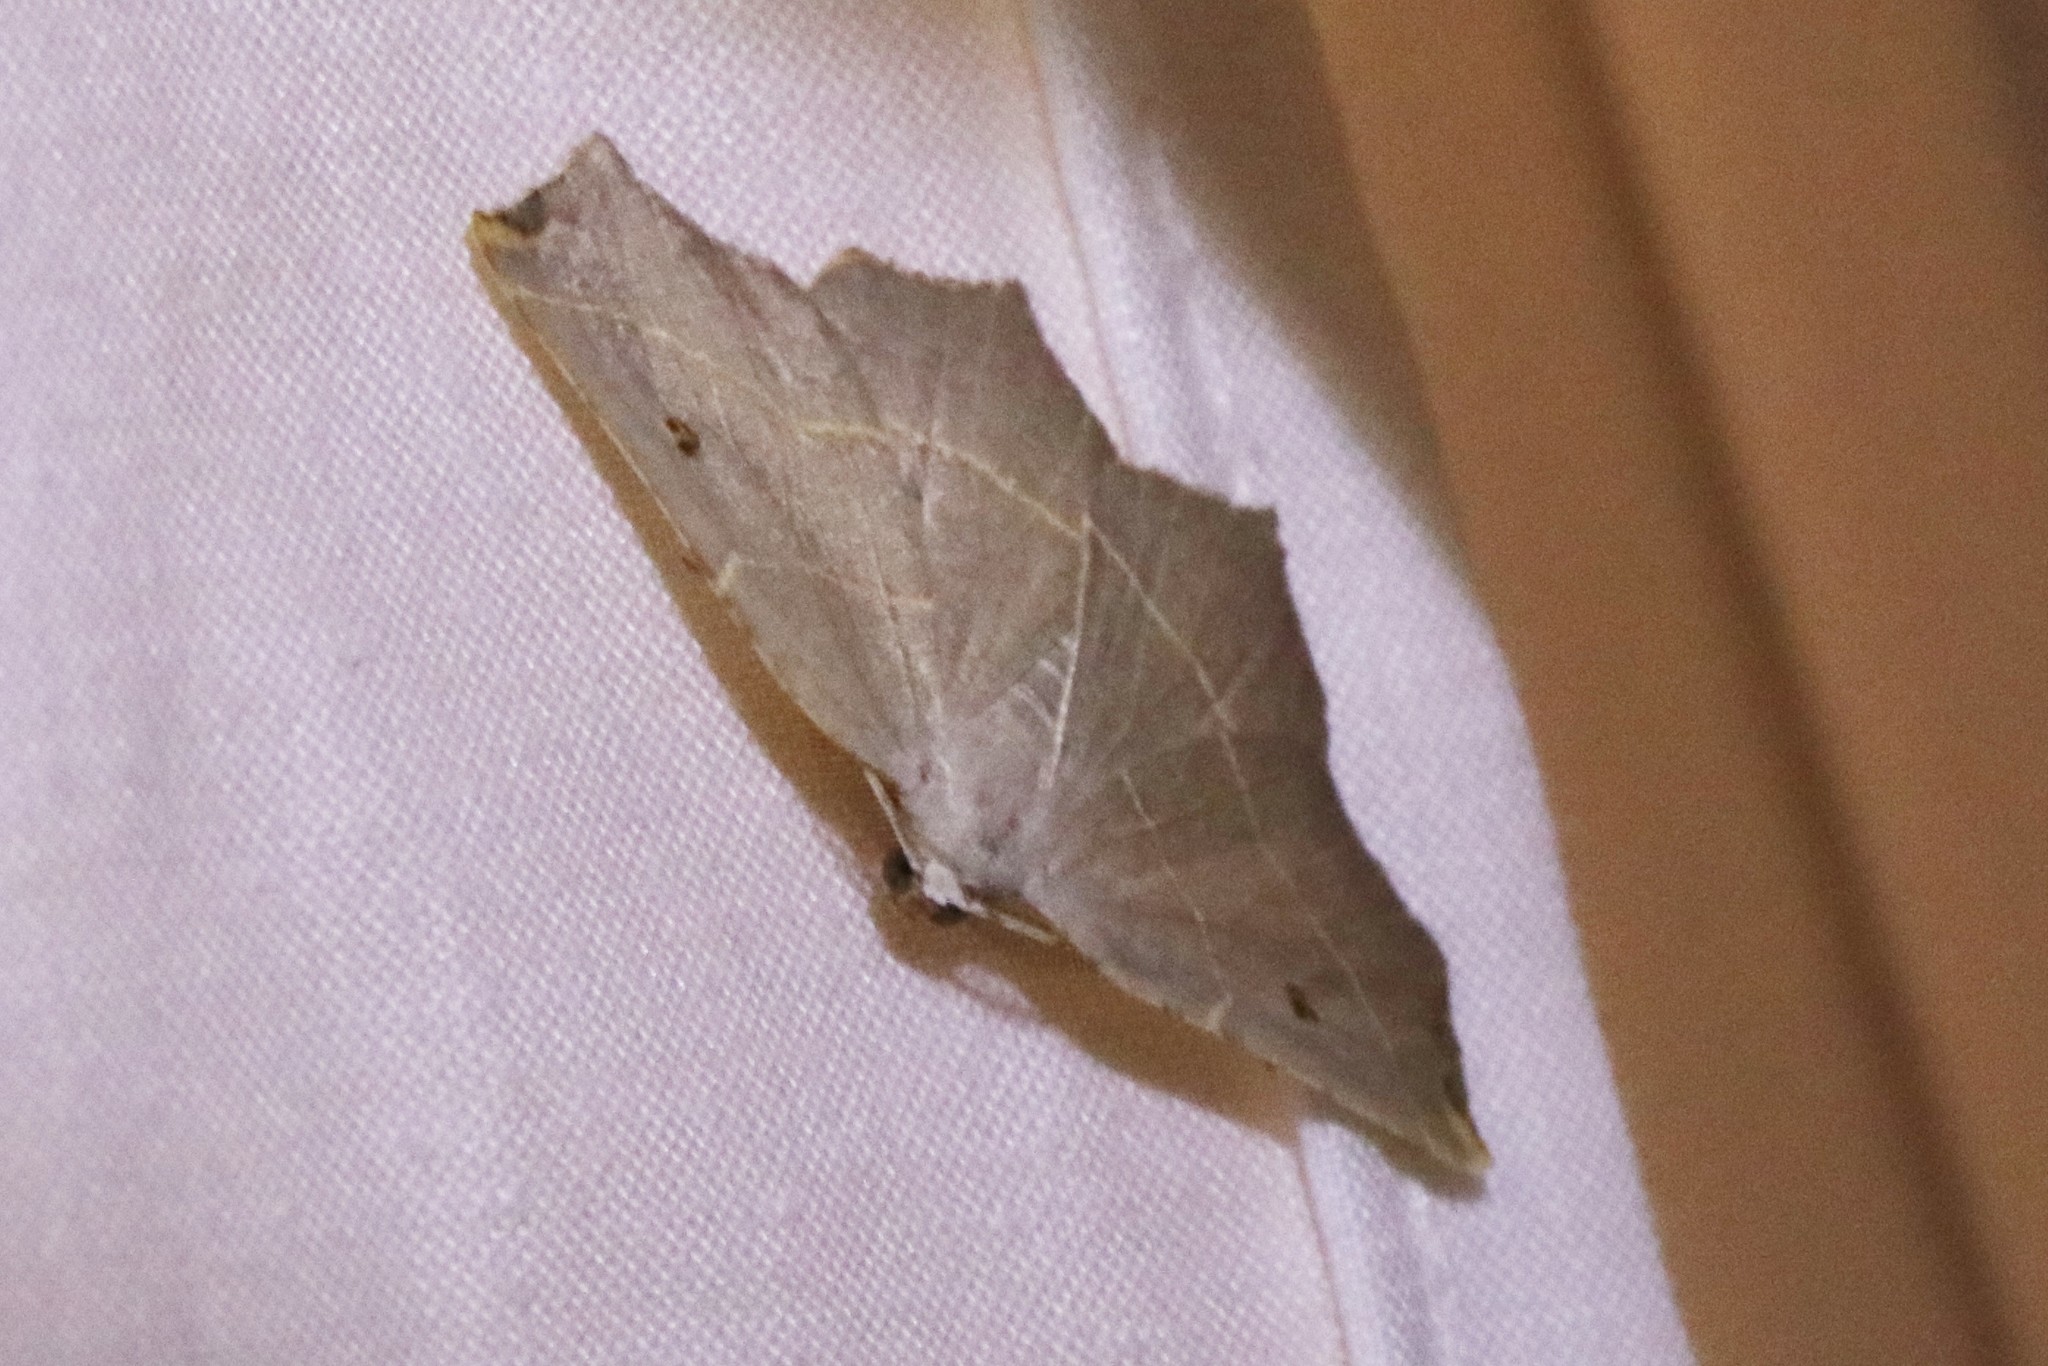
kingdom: Animalia
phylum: Arthropoda
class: Insecta
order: Lepidoptera
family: Geometridae
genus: Metanema
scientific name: Metanema inatomaria
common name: Pale metanema
